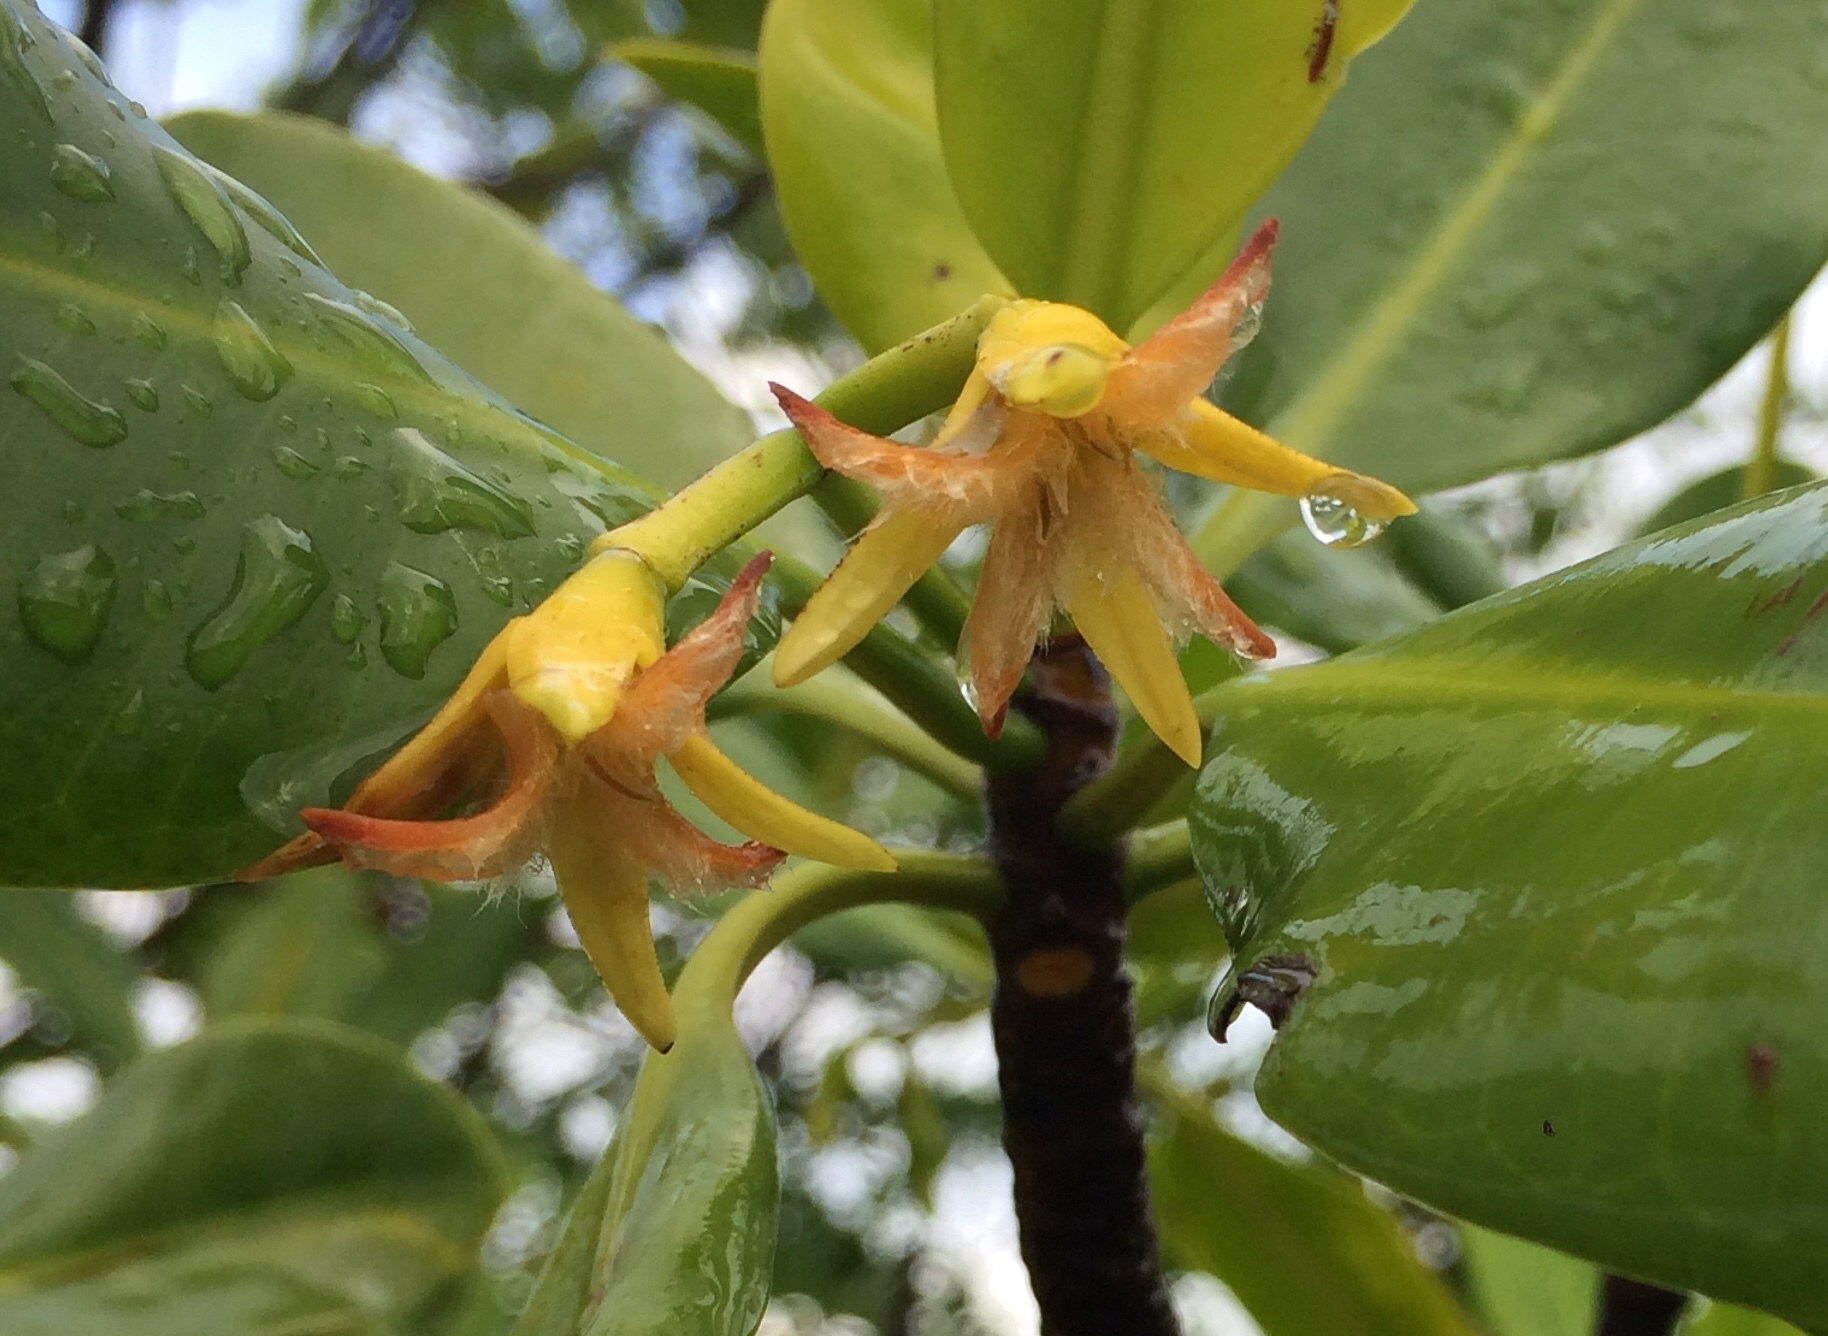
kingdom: Plantae
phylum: Tracheophyta
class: Magnoliopsida
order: Malpighiales
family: Rhizophoraceae
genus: Rhizophora
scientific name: Rhizophora mangle
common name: Red mangrove
